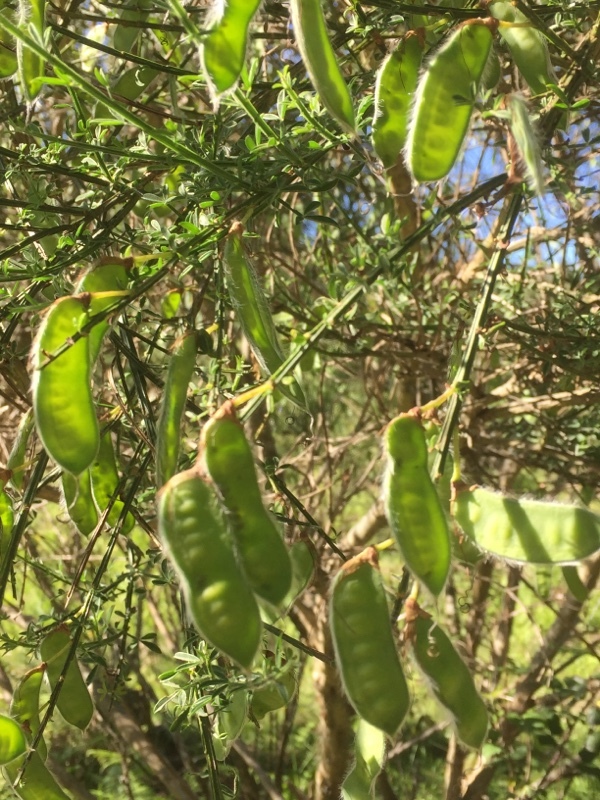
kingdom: Plantae
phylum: Tracheophyta
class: Magnoliopsida
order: Fabales
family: Fabaceae
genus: Cytisus
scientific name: Cytisus scoparius
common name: Scotch broom
